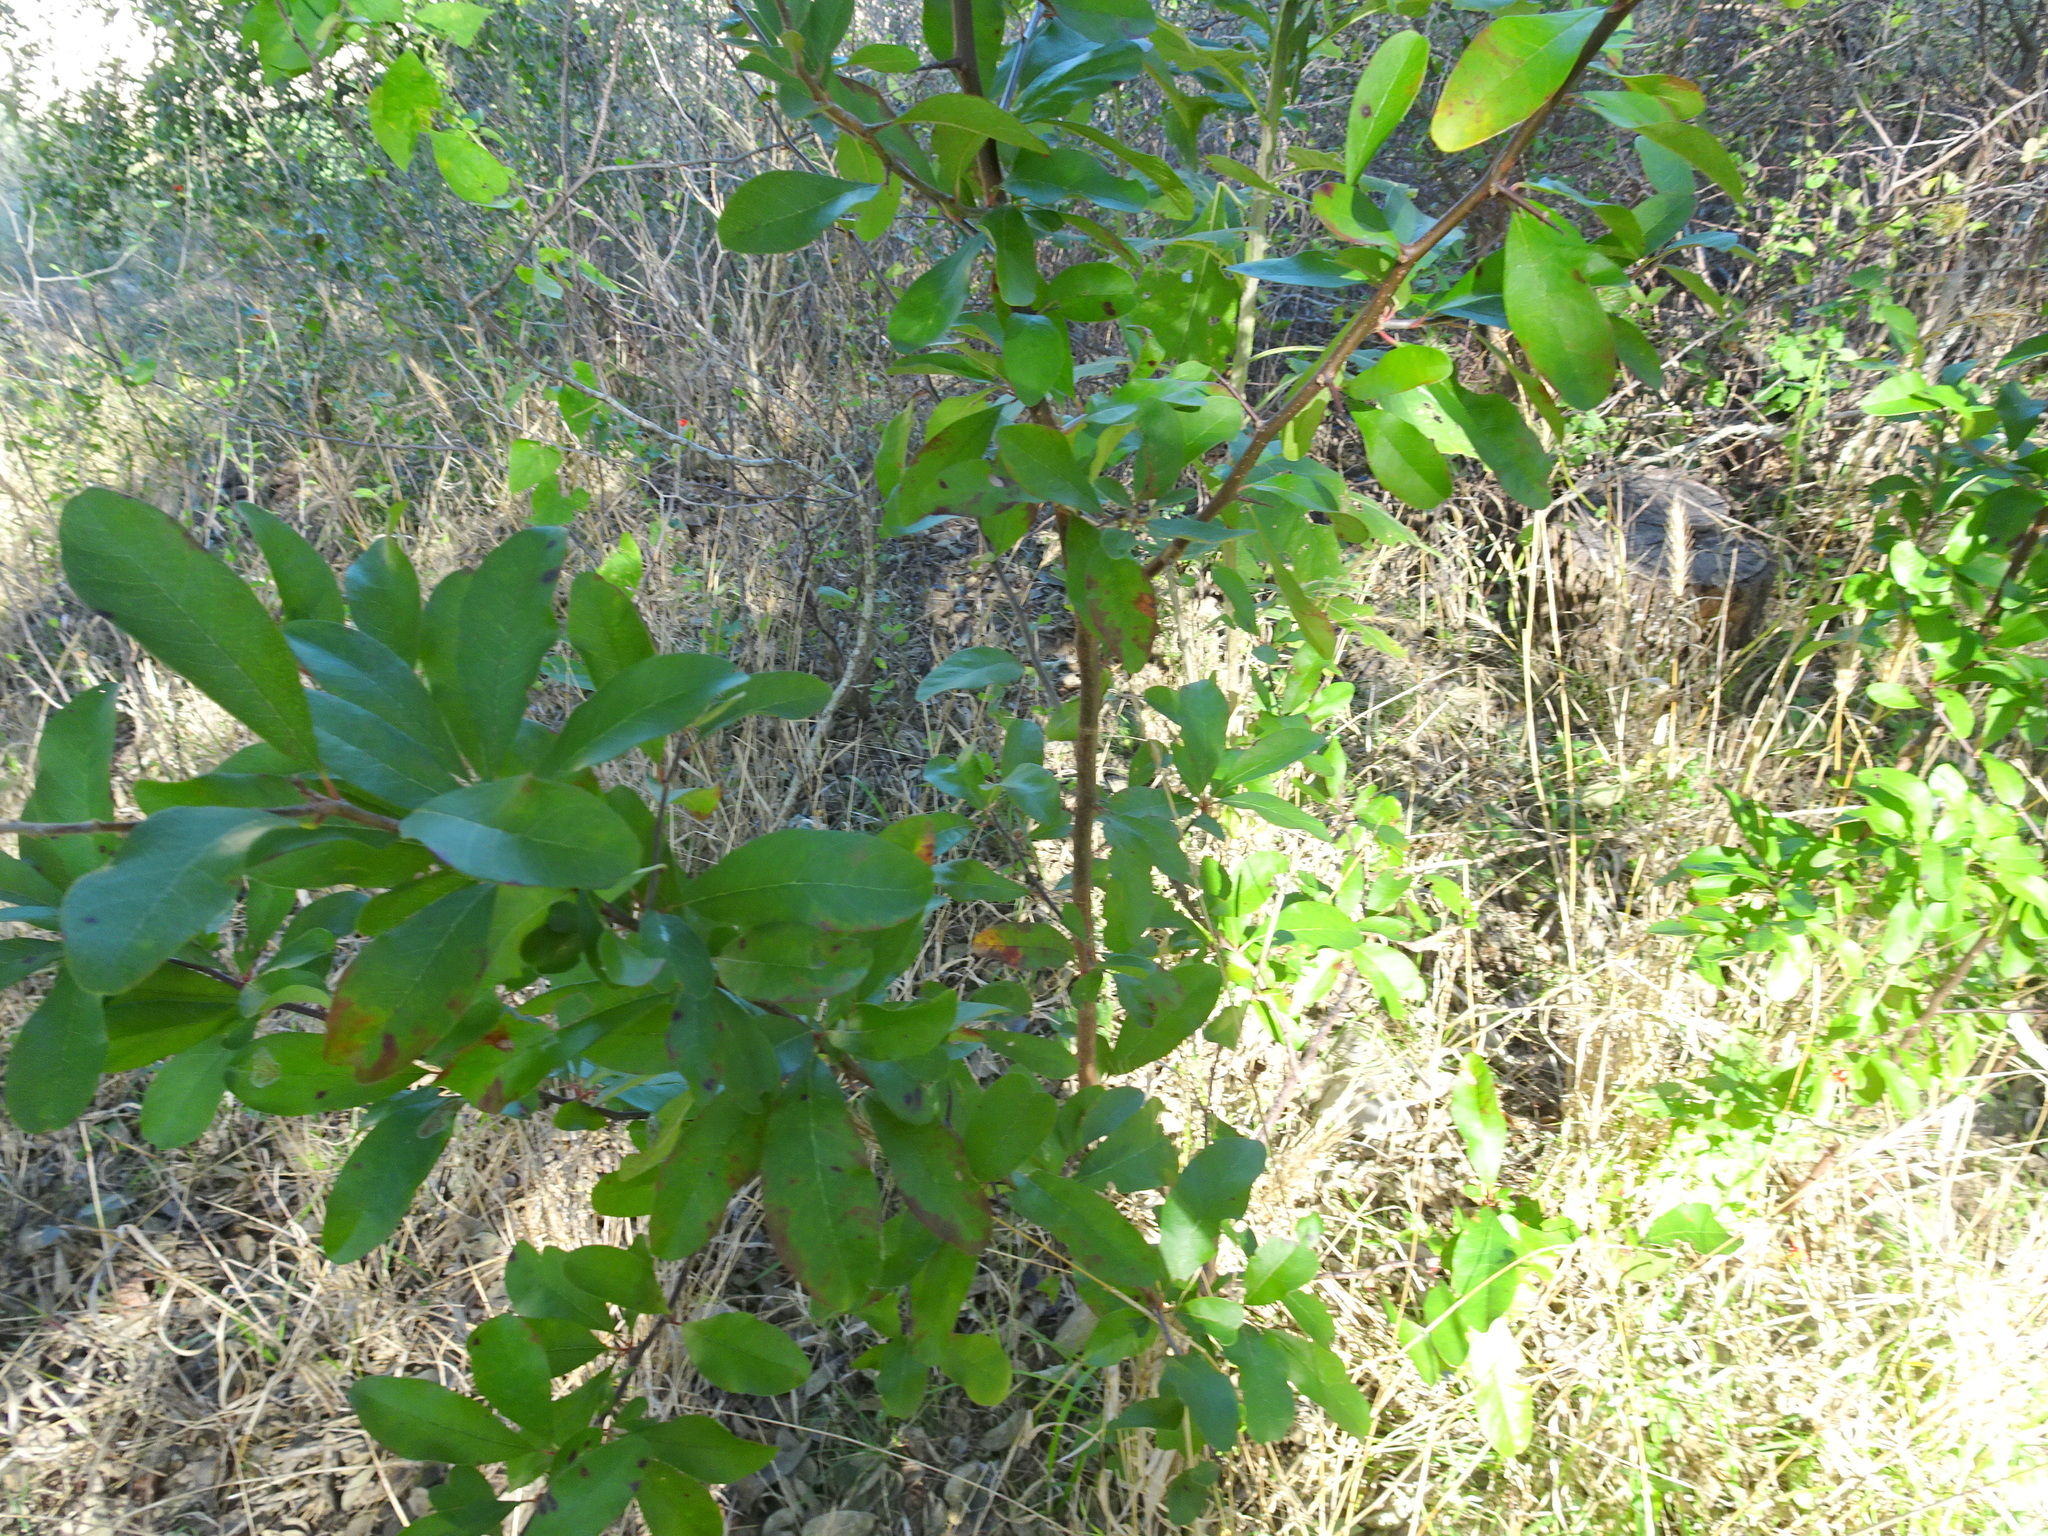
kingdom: Plantae
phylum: Tracheophyta
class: Magnoliopsida
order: Ericales
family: Sapotaceae
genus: Sideroxylon
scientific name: Sideroxylon lanuginosum
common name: Chittamwood
